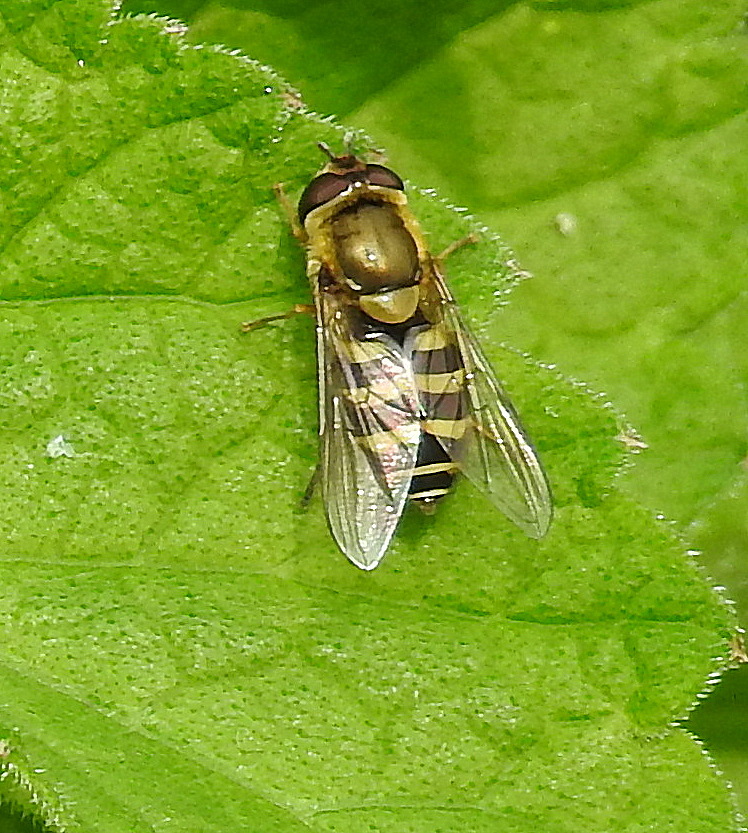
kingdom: Animalia
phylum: Arthropoda
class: Insecta
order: Diptera
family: Syrphidae
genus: Syrphus
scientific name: Syrphus
